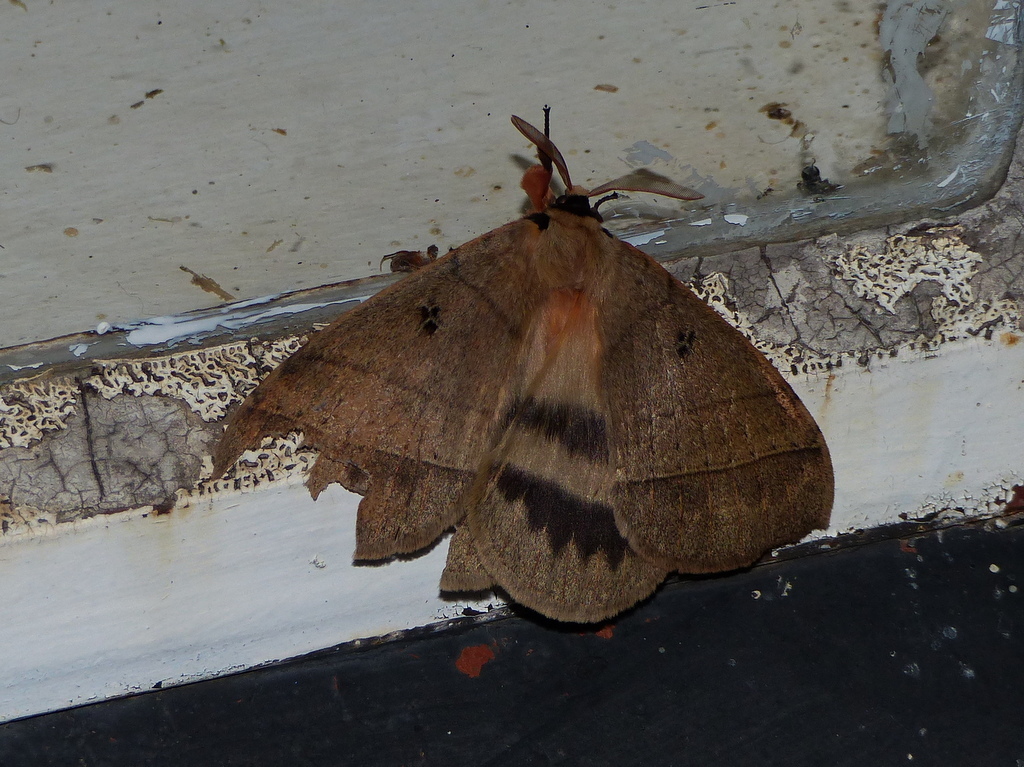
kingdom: Animalia
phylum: Arthropoda
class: Insecta
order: Lepidoptera
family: Eupterotidae
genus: Jana
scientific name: Jana eurymas
